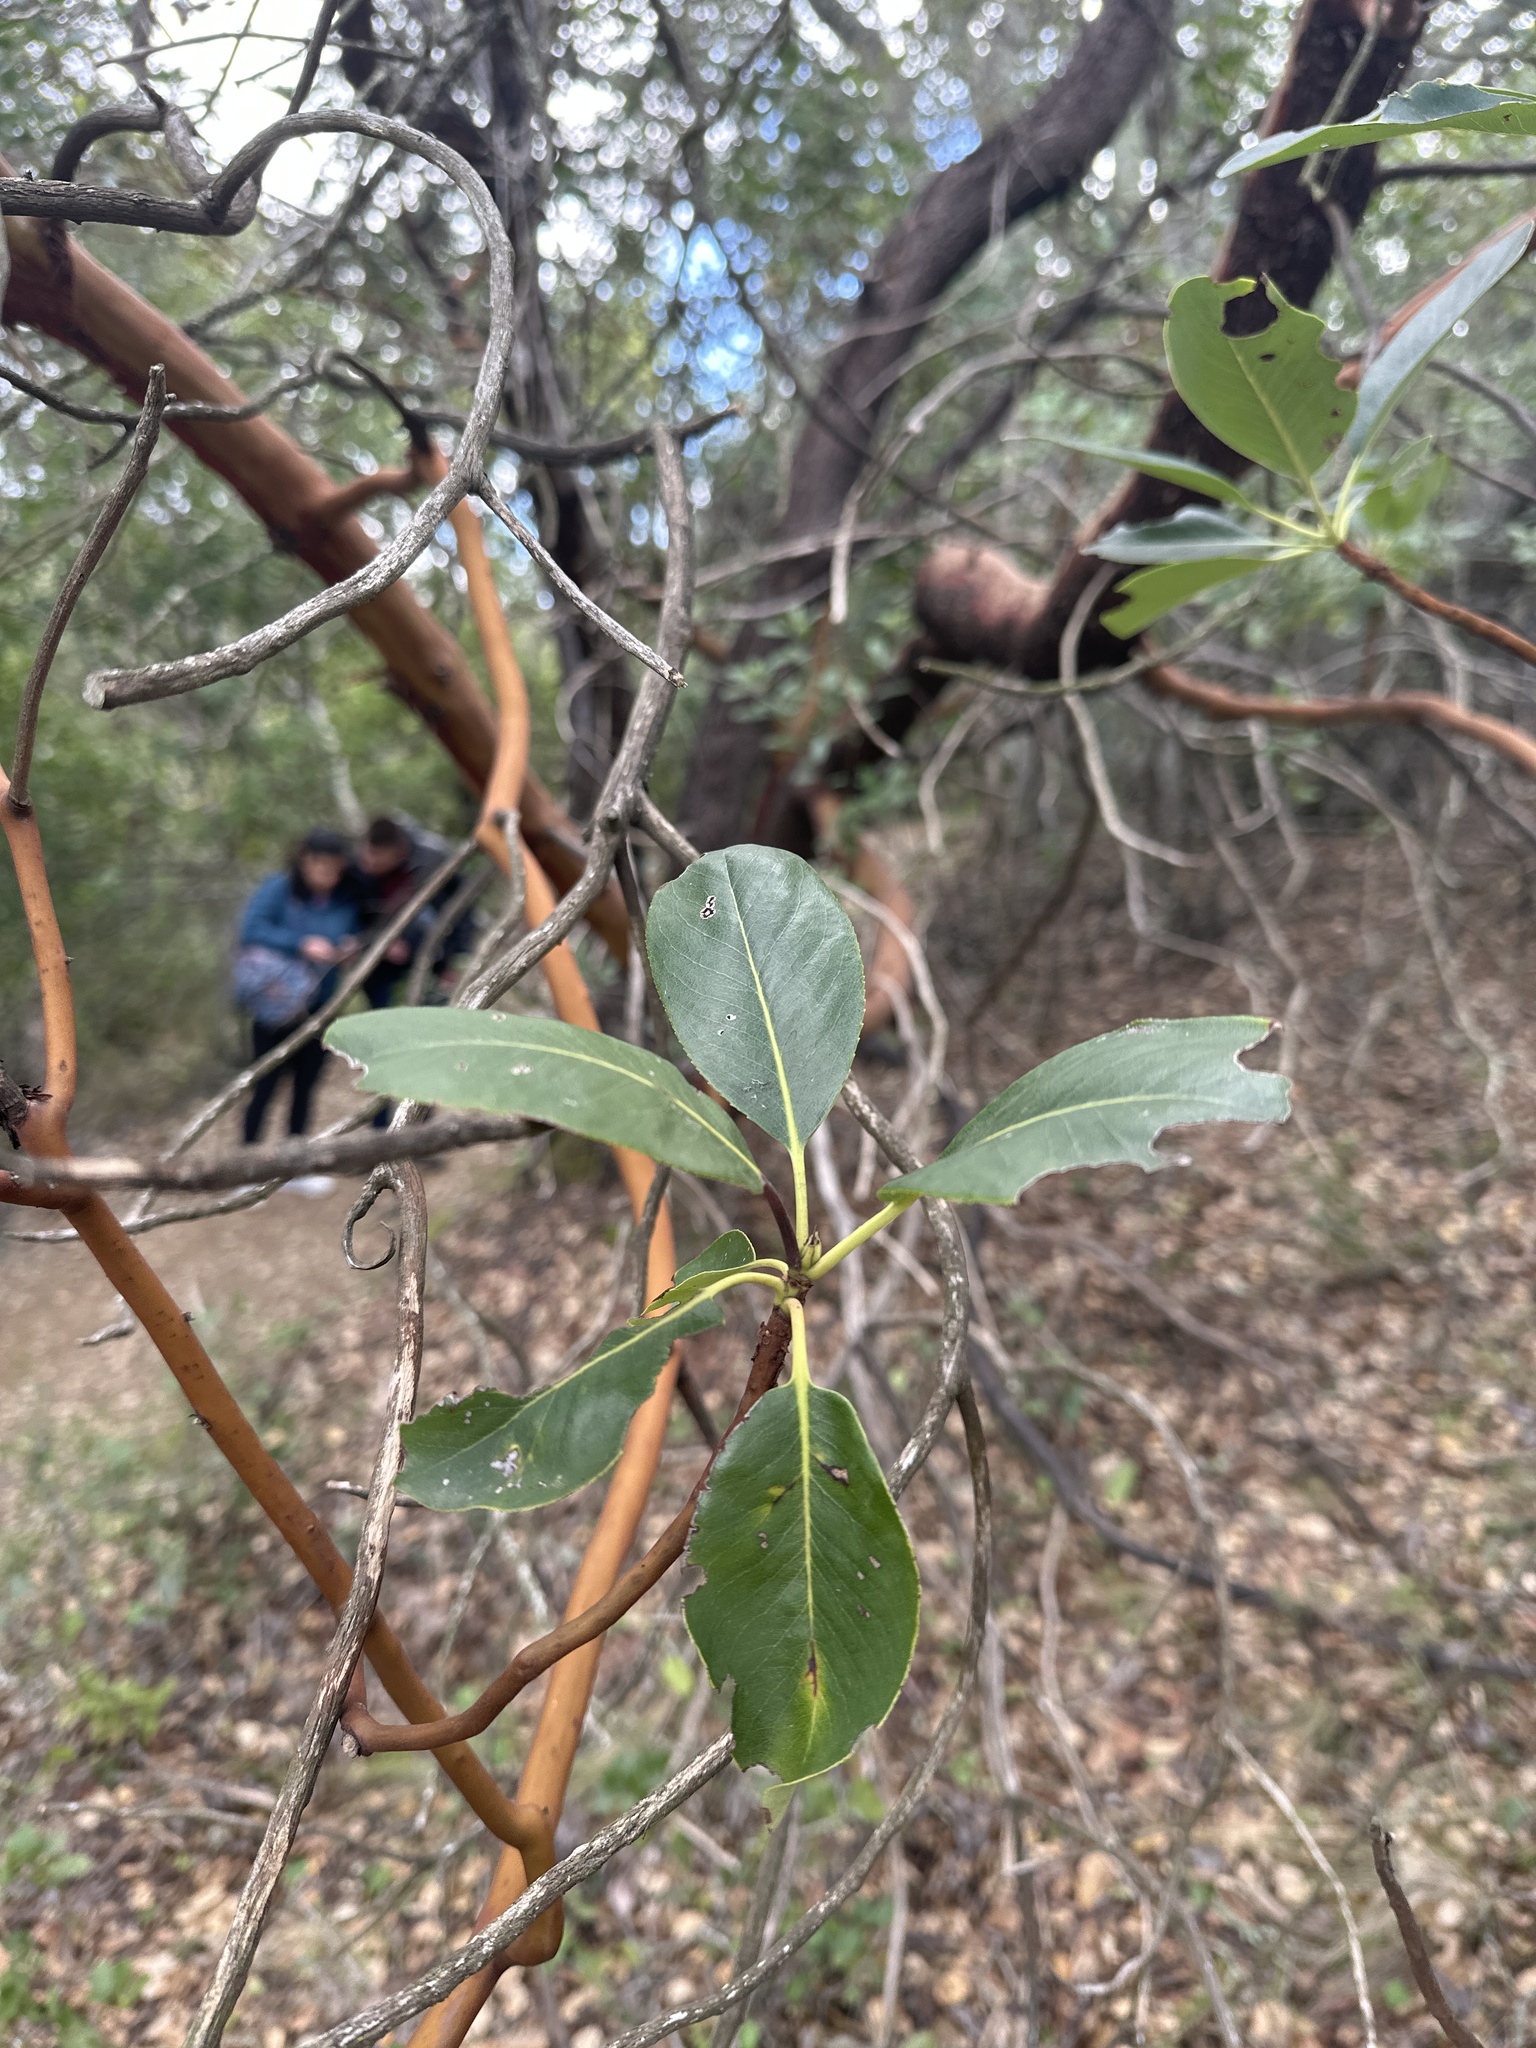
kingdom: Plantae
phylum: Tracheophyta
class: Magnoliopsida
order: Ericales
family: Ericaceae
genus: Arbutus
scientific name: Arbutus menziesii
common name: Pacific madrone
